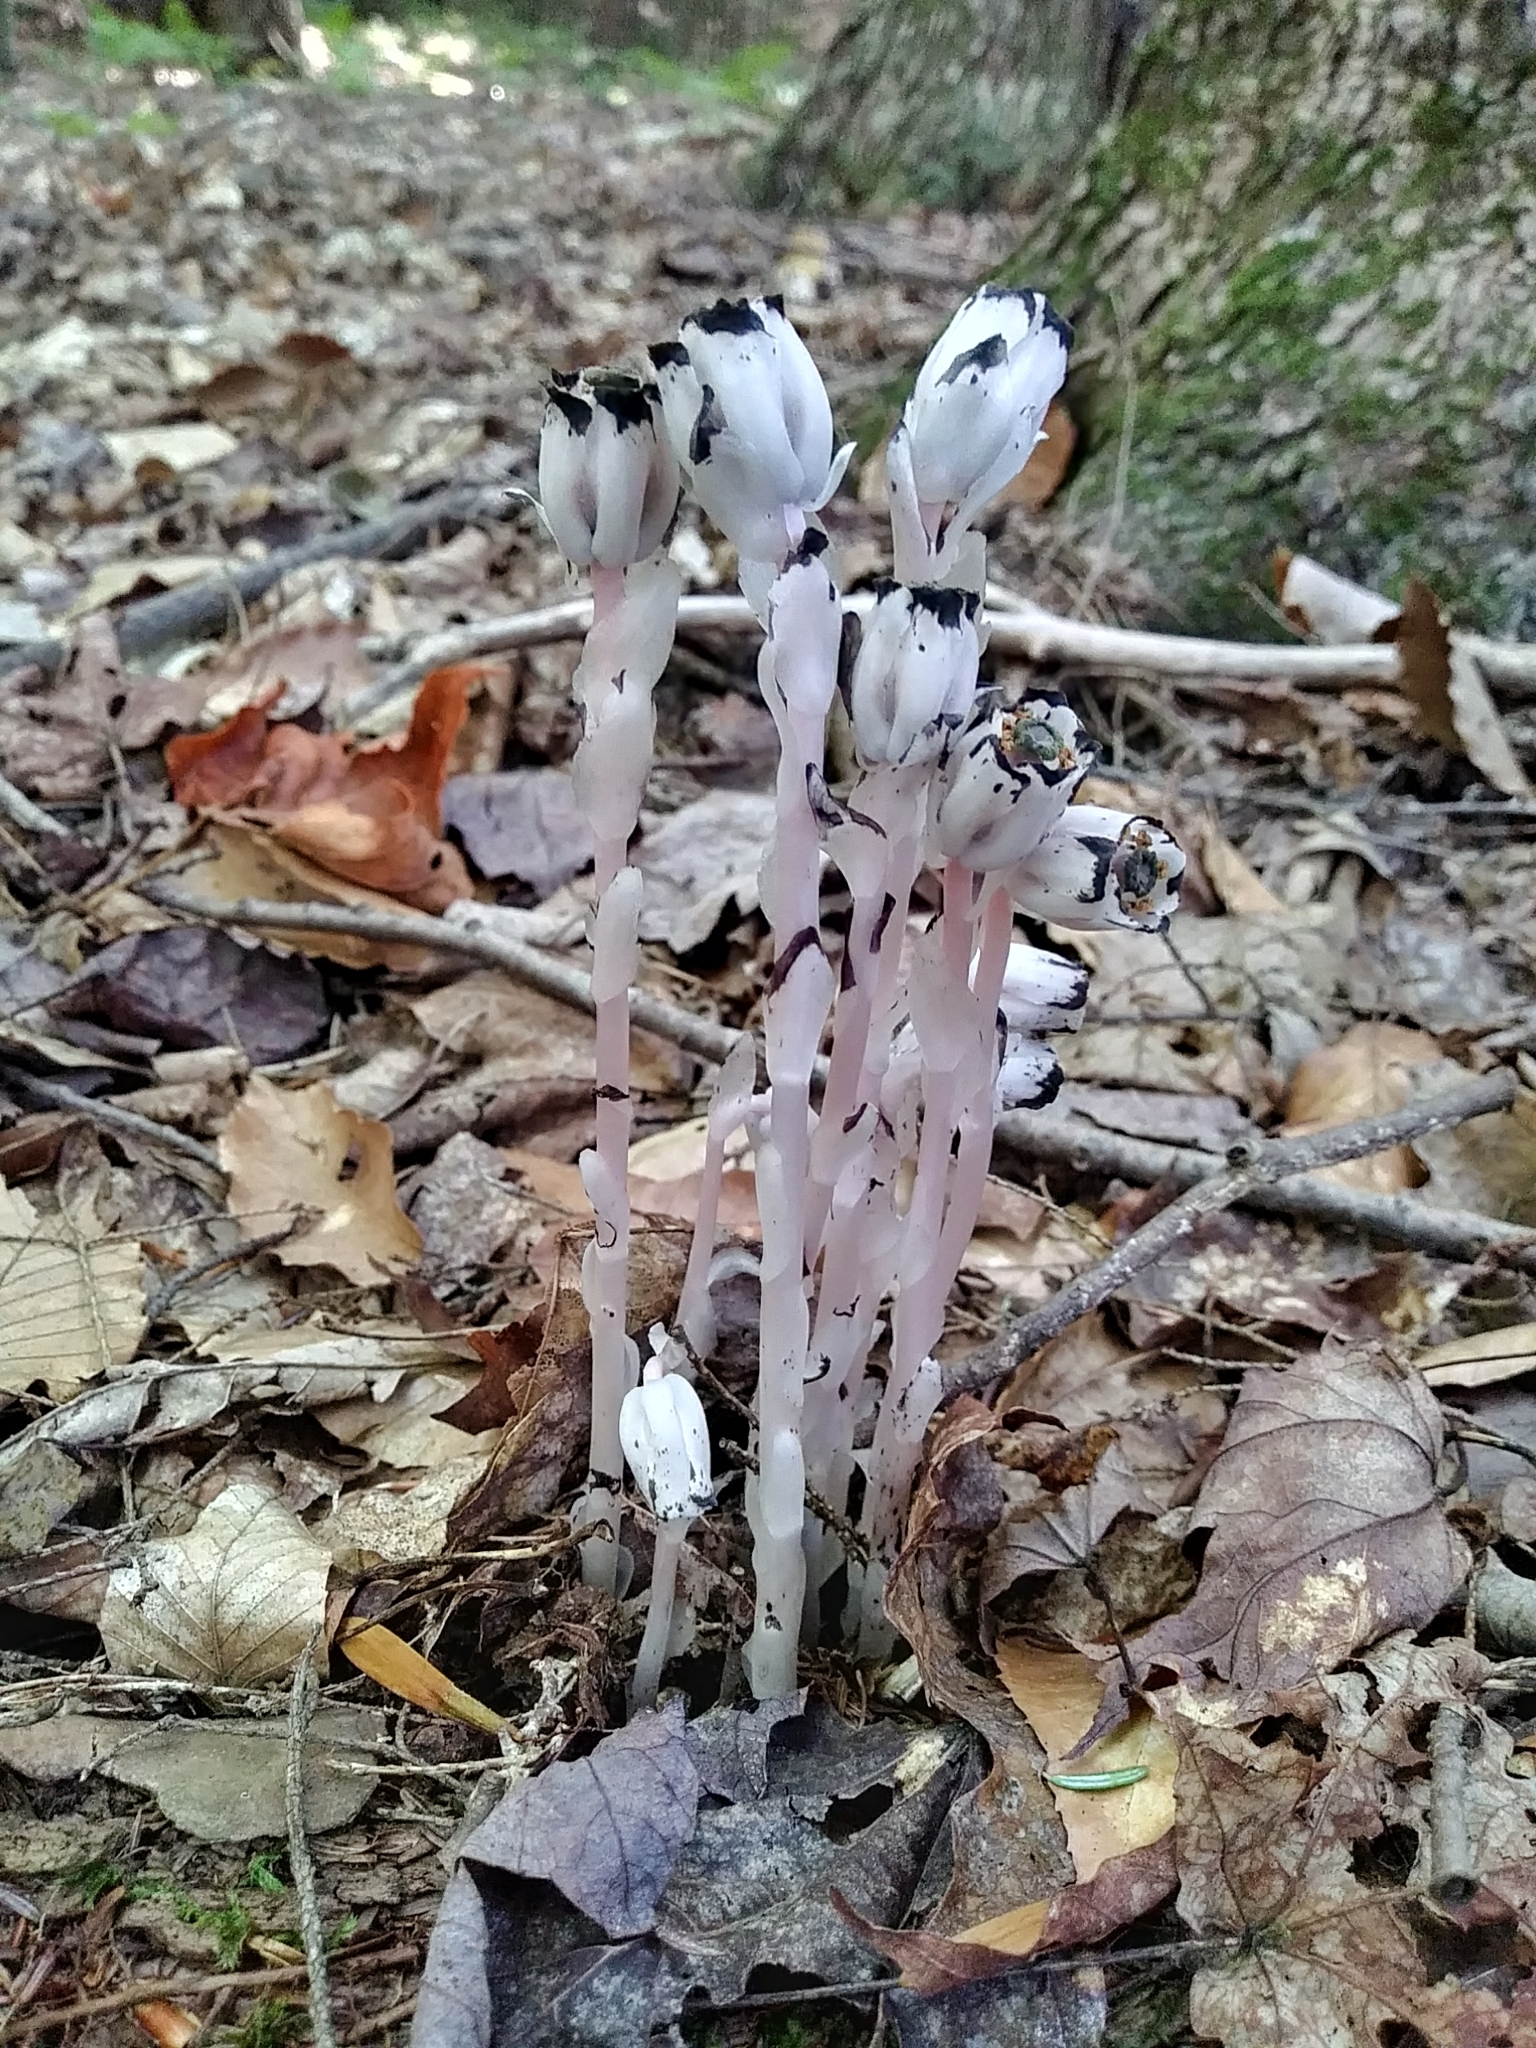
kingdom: Plantae
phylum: Tracheophyta
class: Magnoliopsida
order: Ericales
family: Ericaceae
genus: Monotropa
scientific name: Monotropa uniflora
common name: Convulsion root
